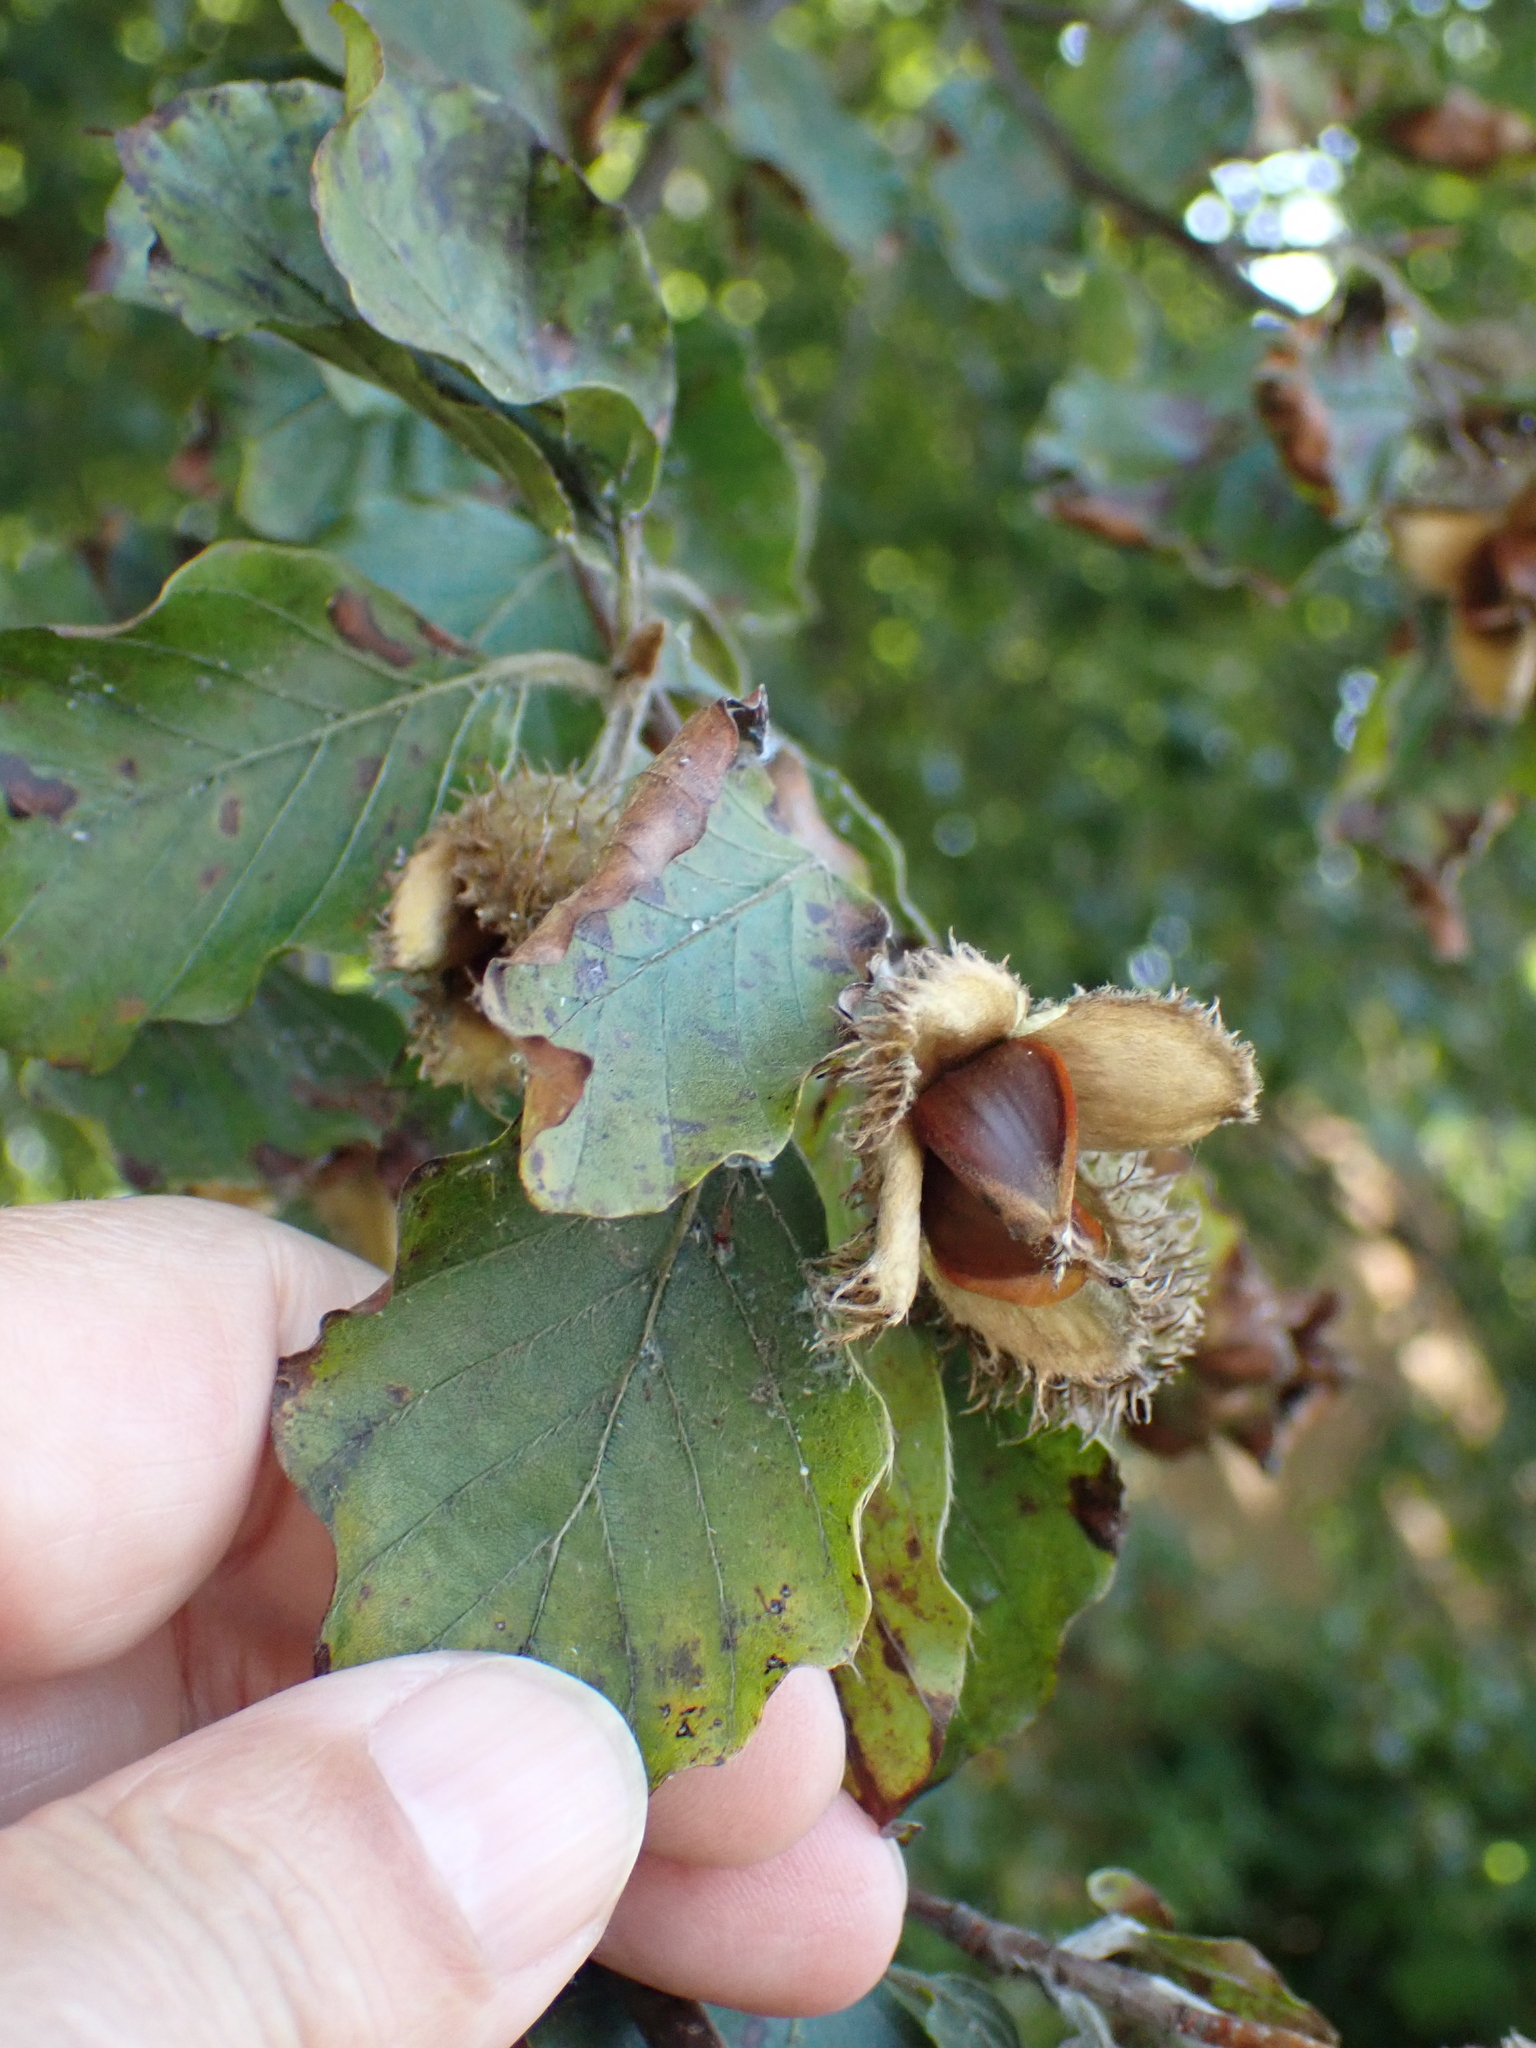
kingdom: Plantae
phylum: Tracheophyta
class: Magnoliopsida
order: Fagales
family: Fagaceae
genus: Fagus
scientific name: Fagus sylvatica
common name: Beech
